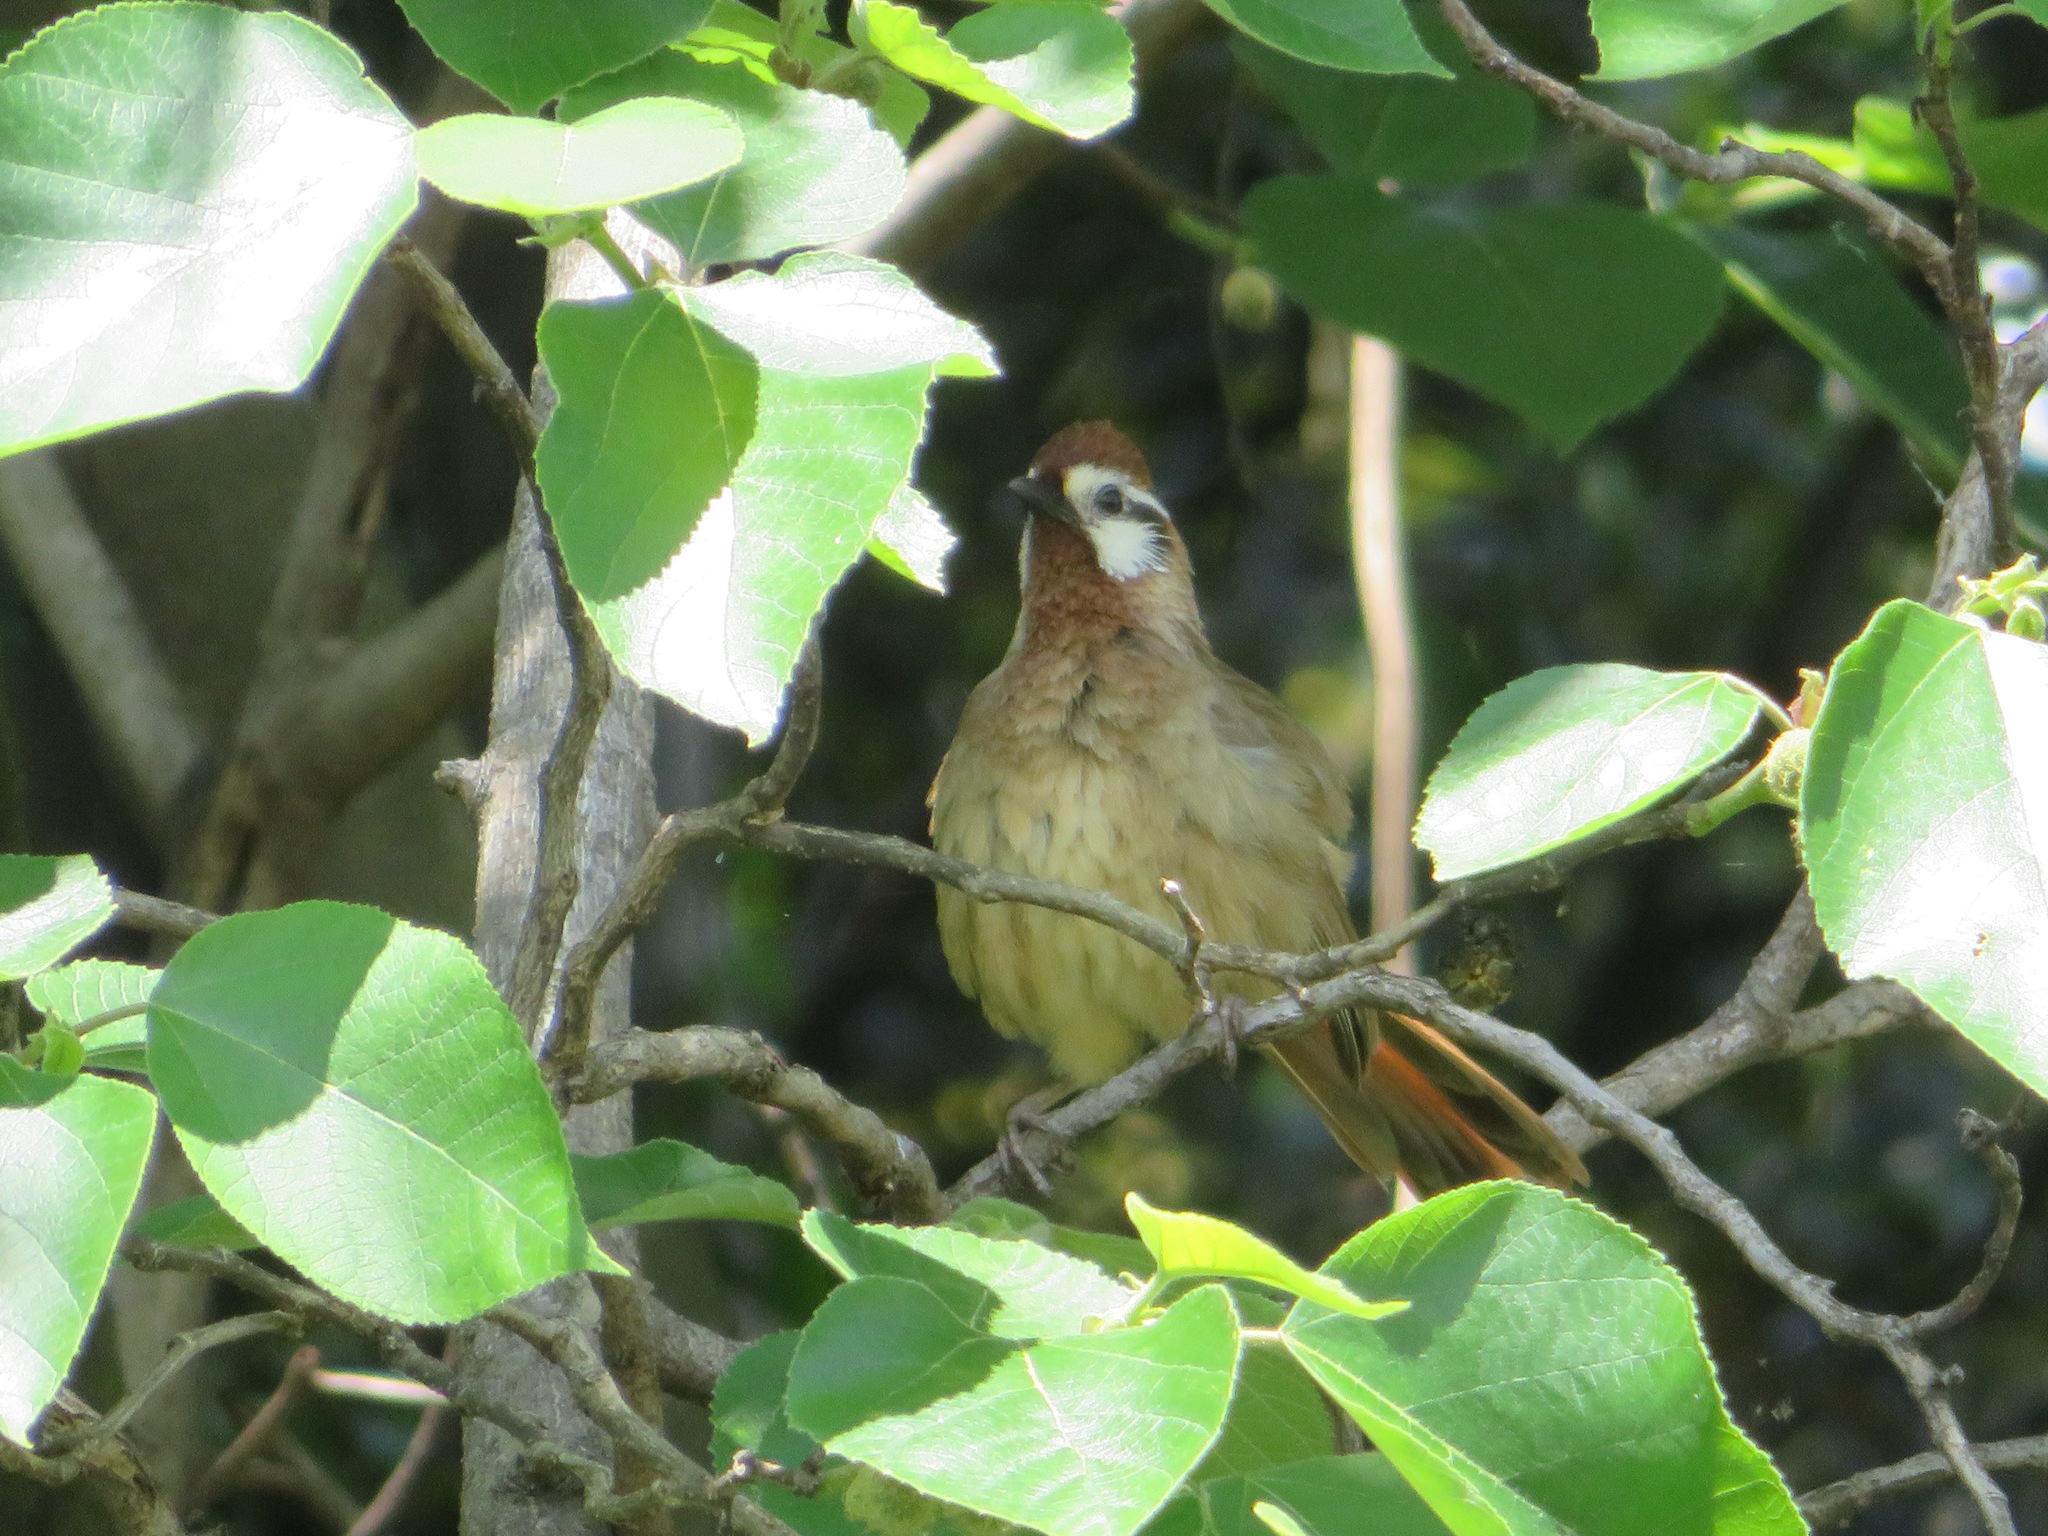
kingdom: Animalia
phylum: Chordata
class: Aves
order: Passeriformes
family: Leiothrichidae
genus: Pterorhinus
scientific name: Pterorhinus sannio
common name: White-browed laughingthrush
